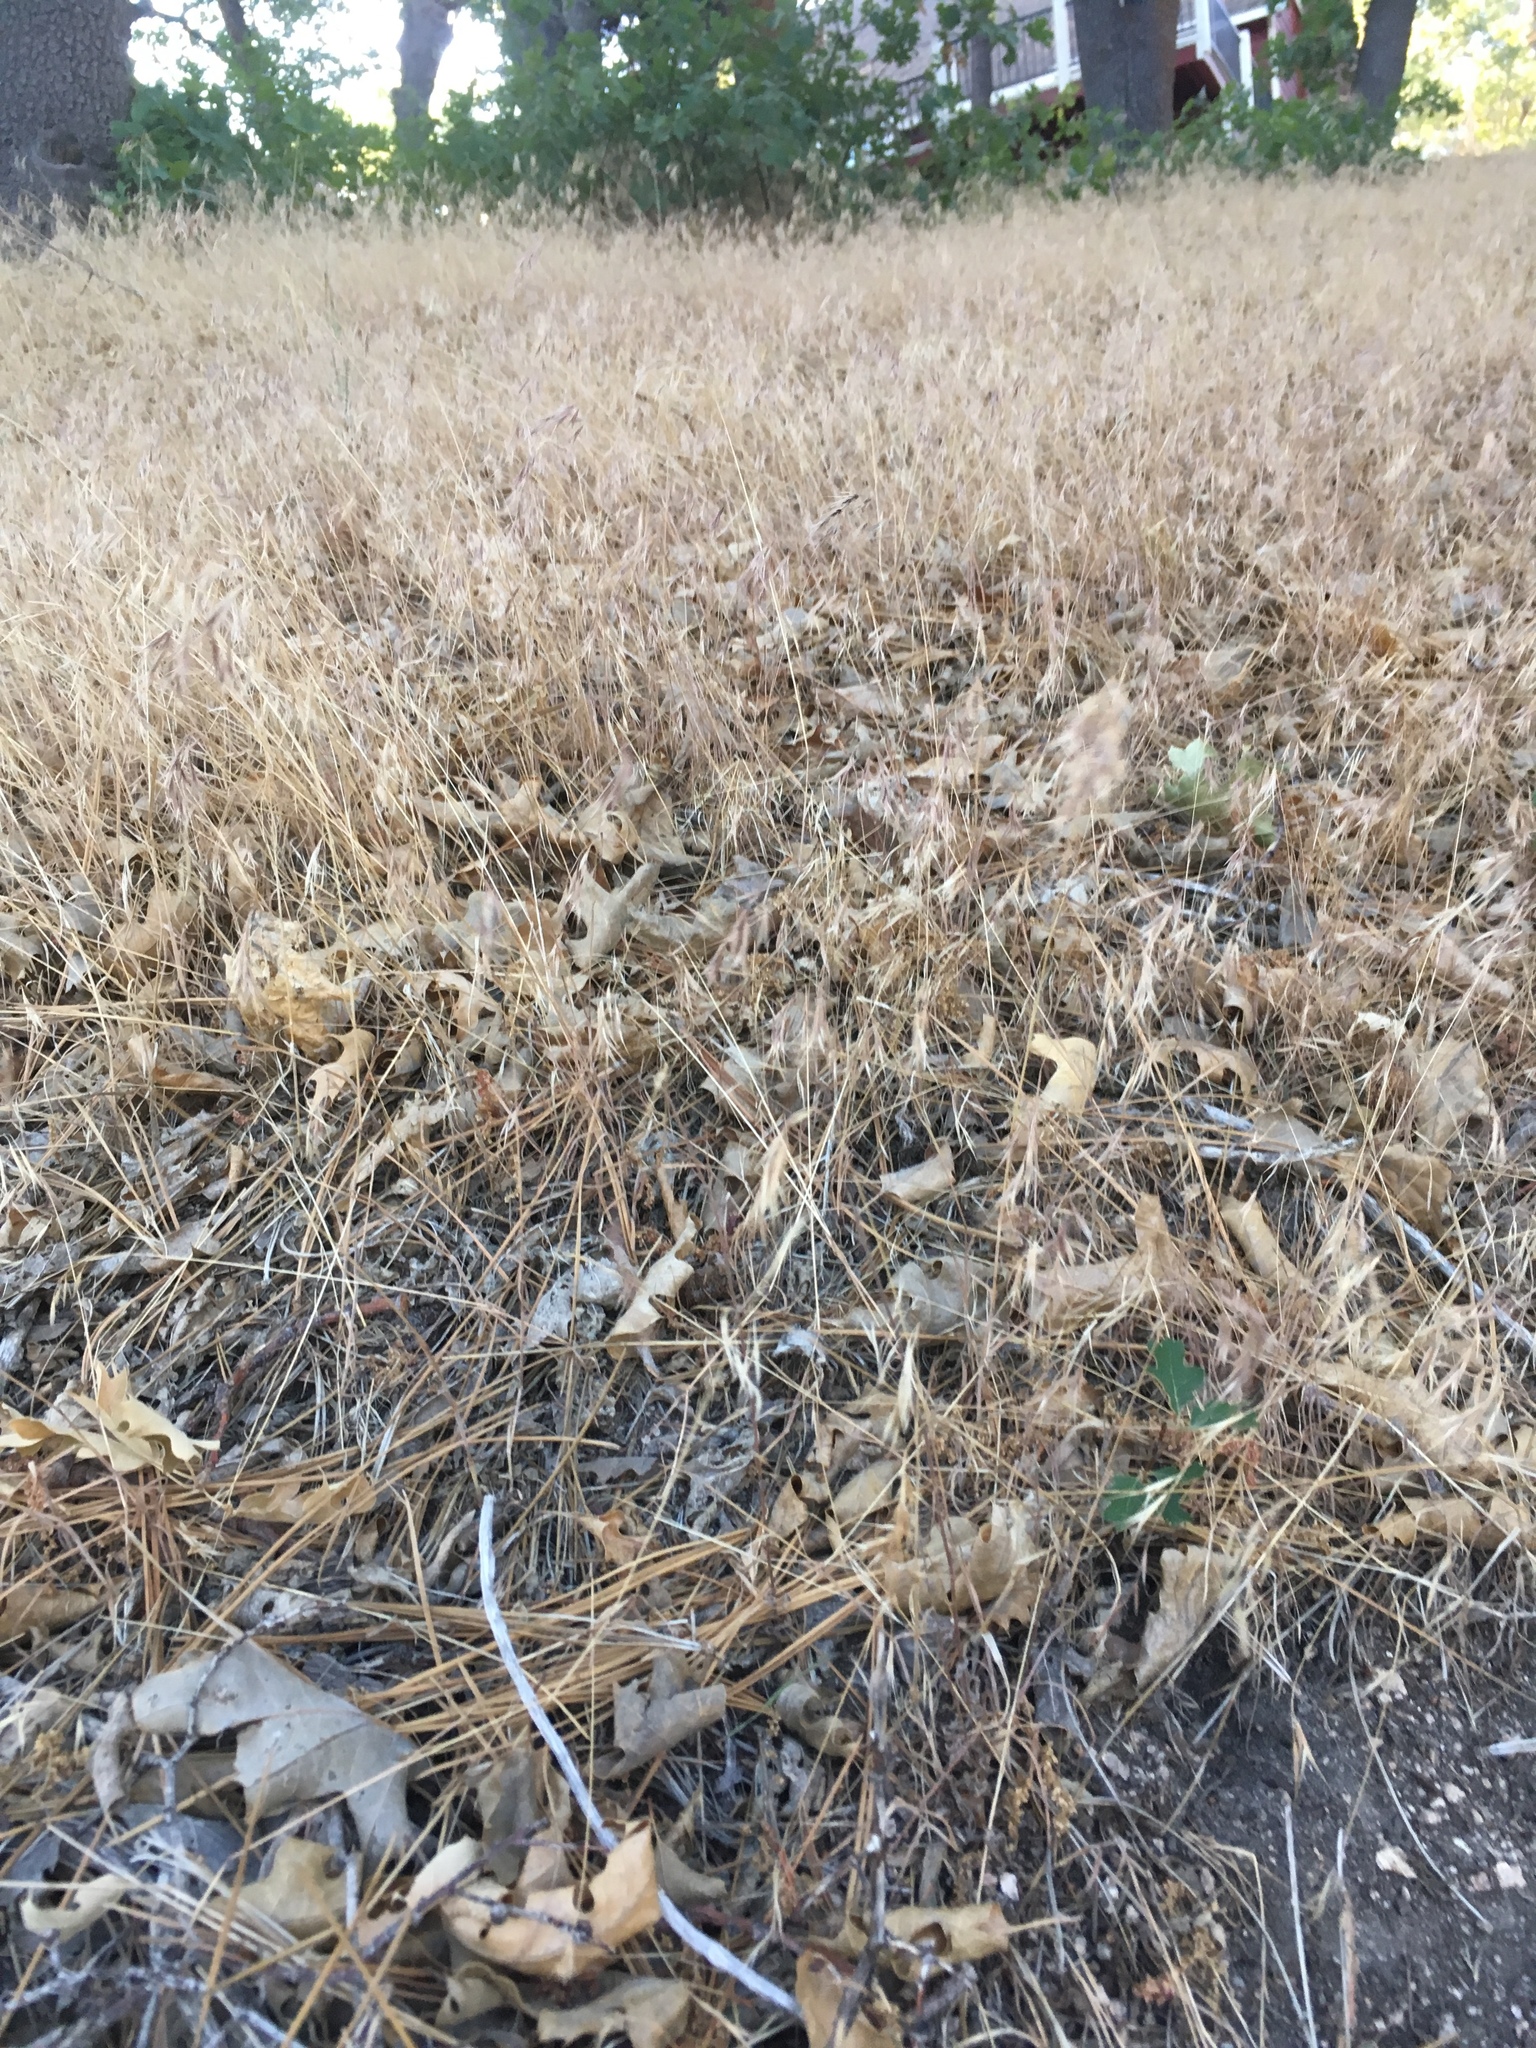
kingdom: Plantae
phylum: Tracheophyta
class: Liliopsida
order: Poales
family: Poaceae
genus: Bromus
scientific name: Bromus tectorum
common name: Cheatgrass
